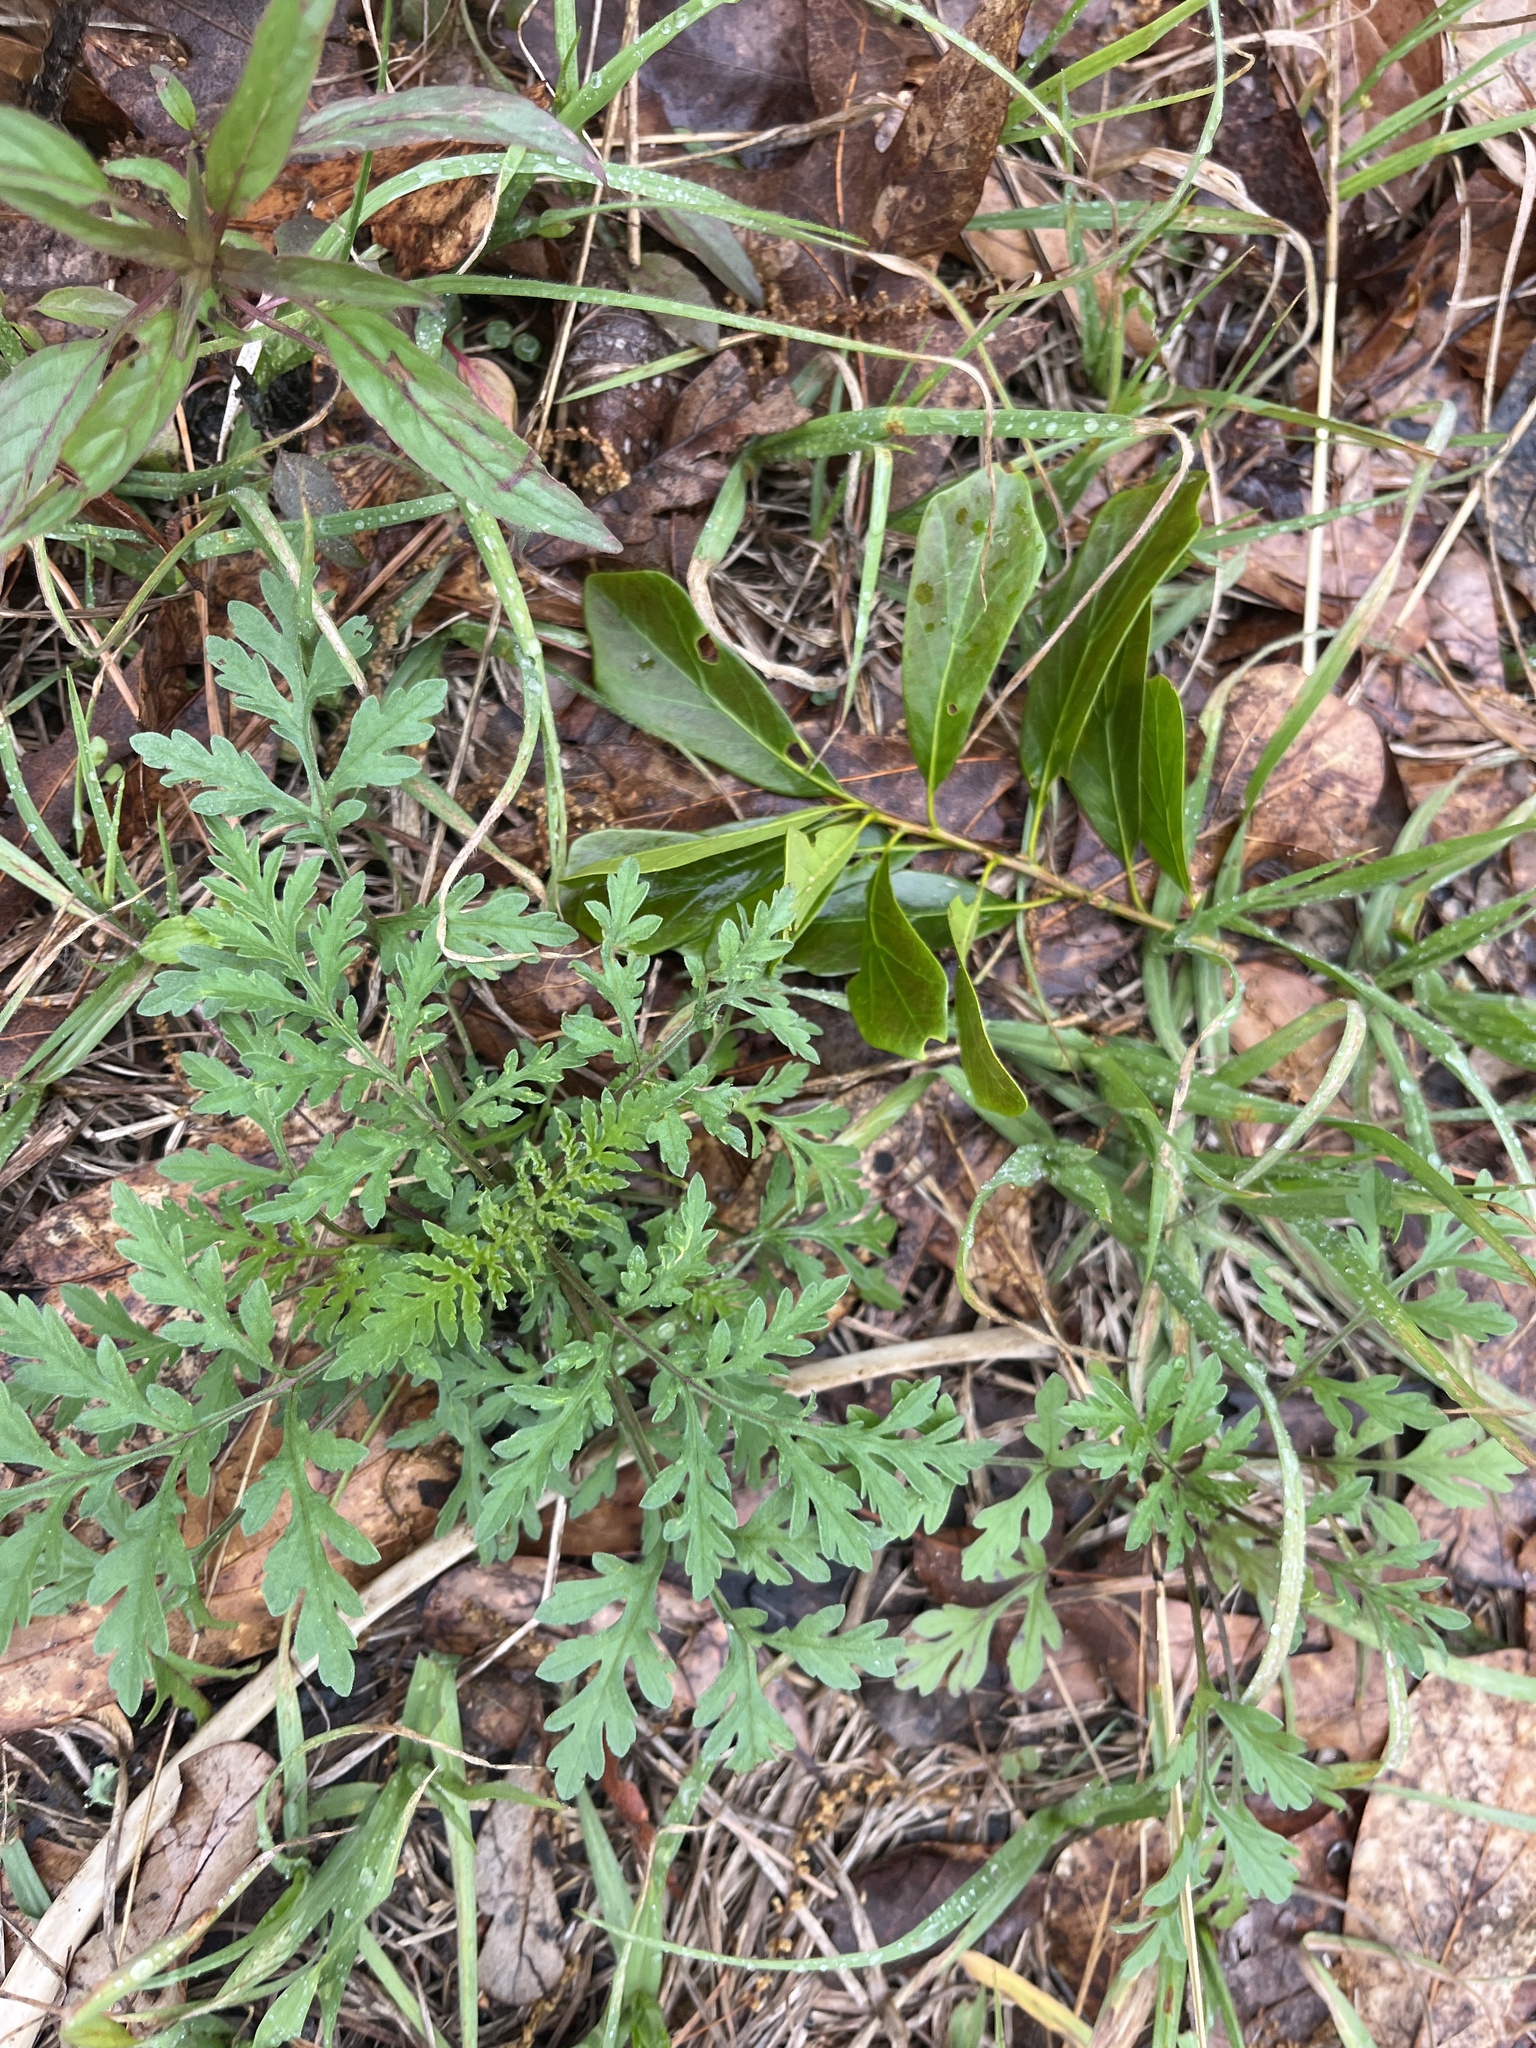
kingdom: Plantae
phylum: Tracheophyta
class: Magnoliopsida
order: Asterales
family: Asteraceae
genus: Ambrosia
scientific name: Ambrosia artemisiifolia
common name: Annual ragweed
